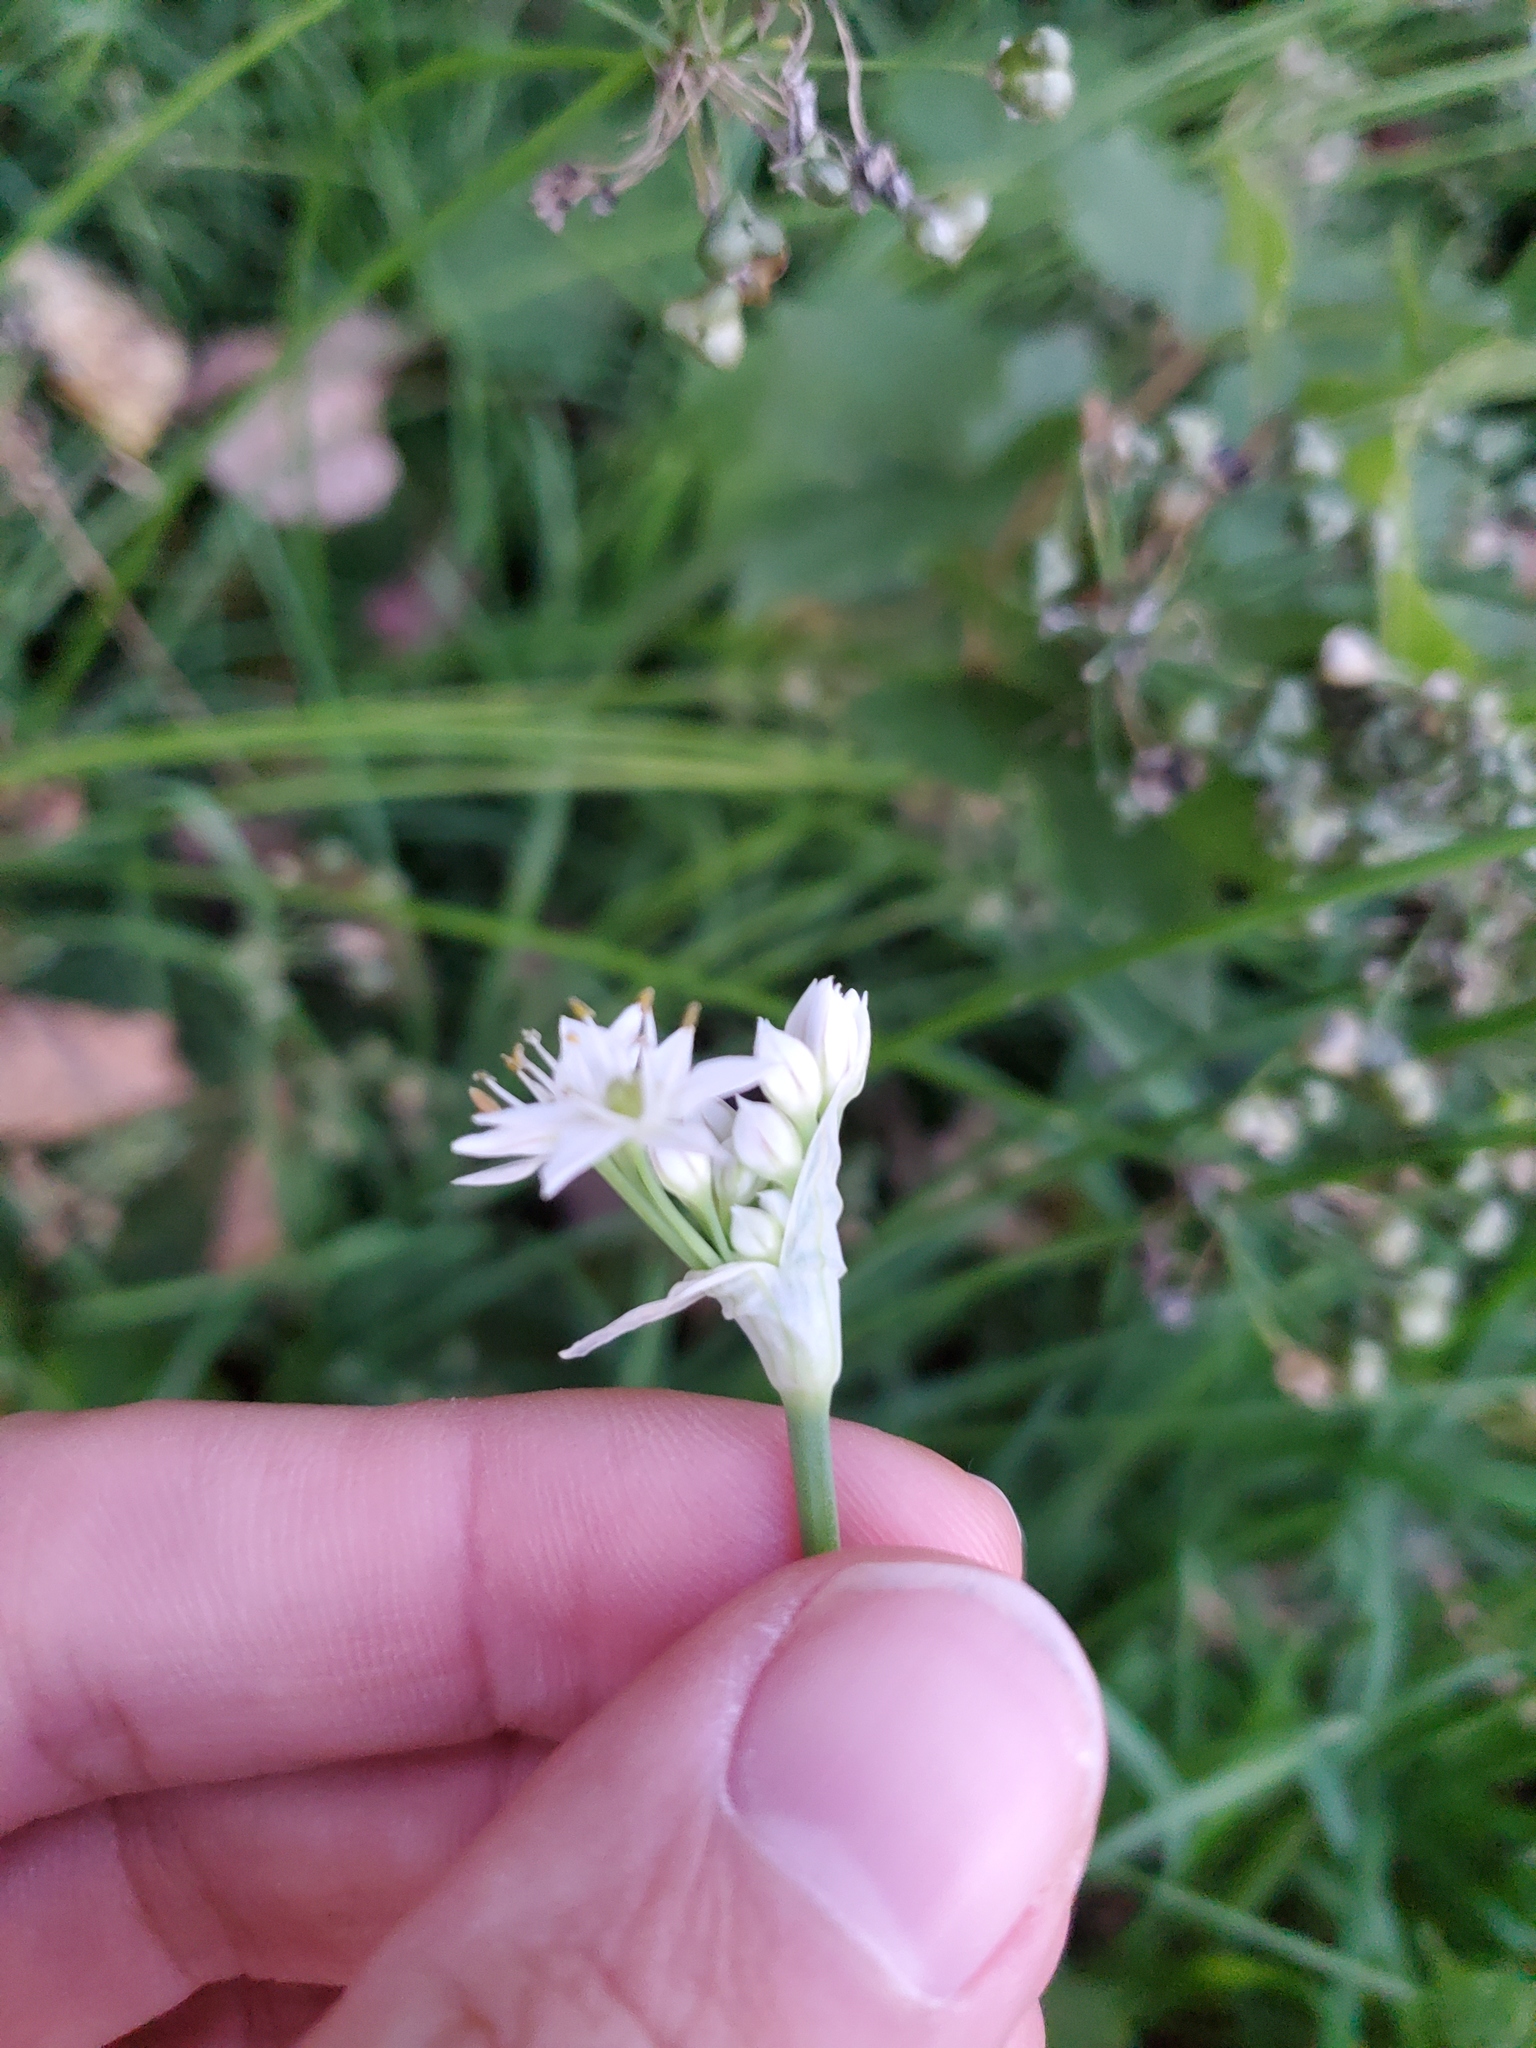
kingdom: Plantae
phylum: Tracheophyta
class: Liliopsida
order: Asparagales
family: Amaryllidaceae
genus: Allium
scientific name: Allium tuberosum
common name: Chinese chives
